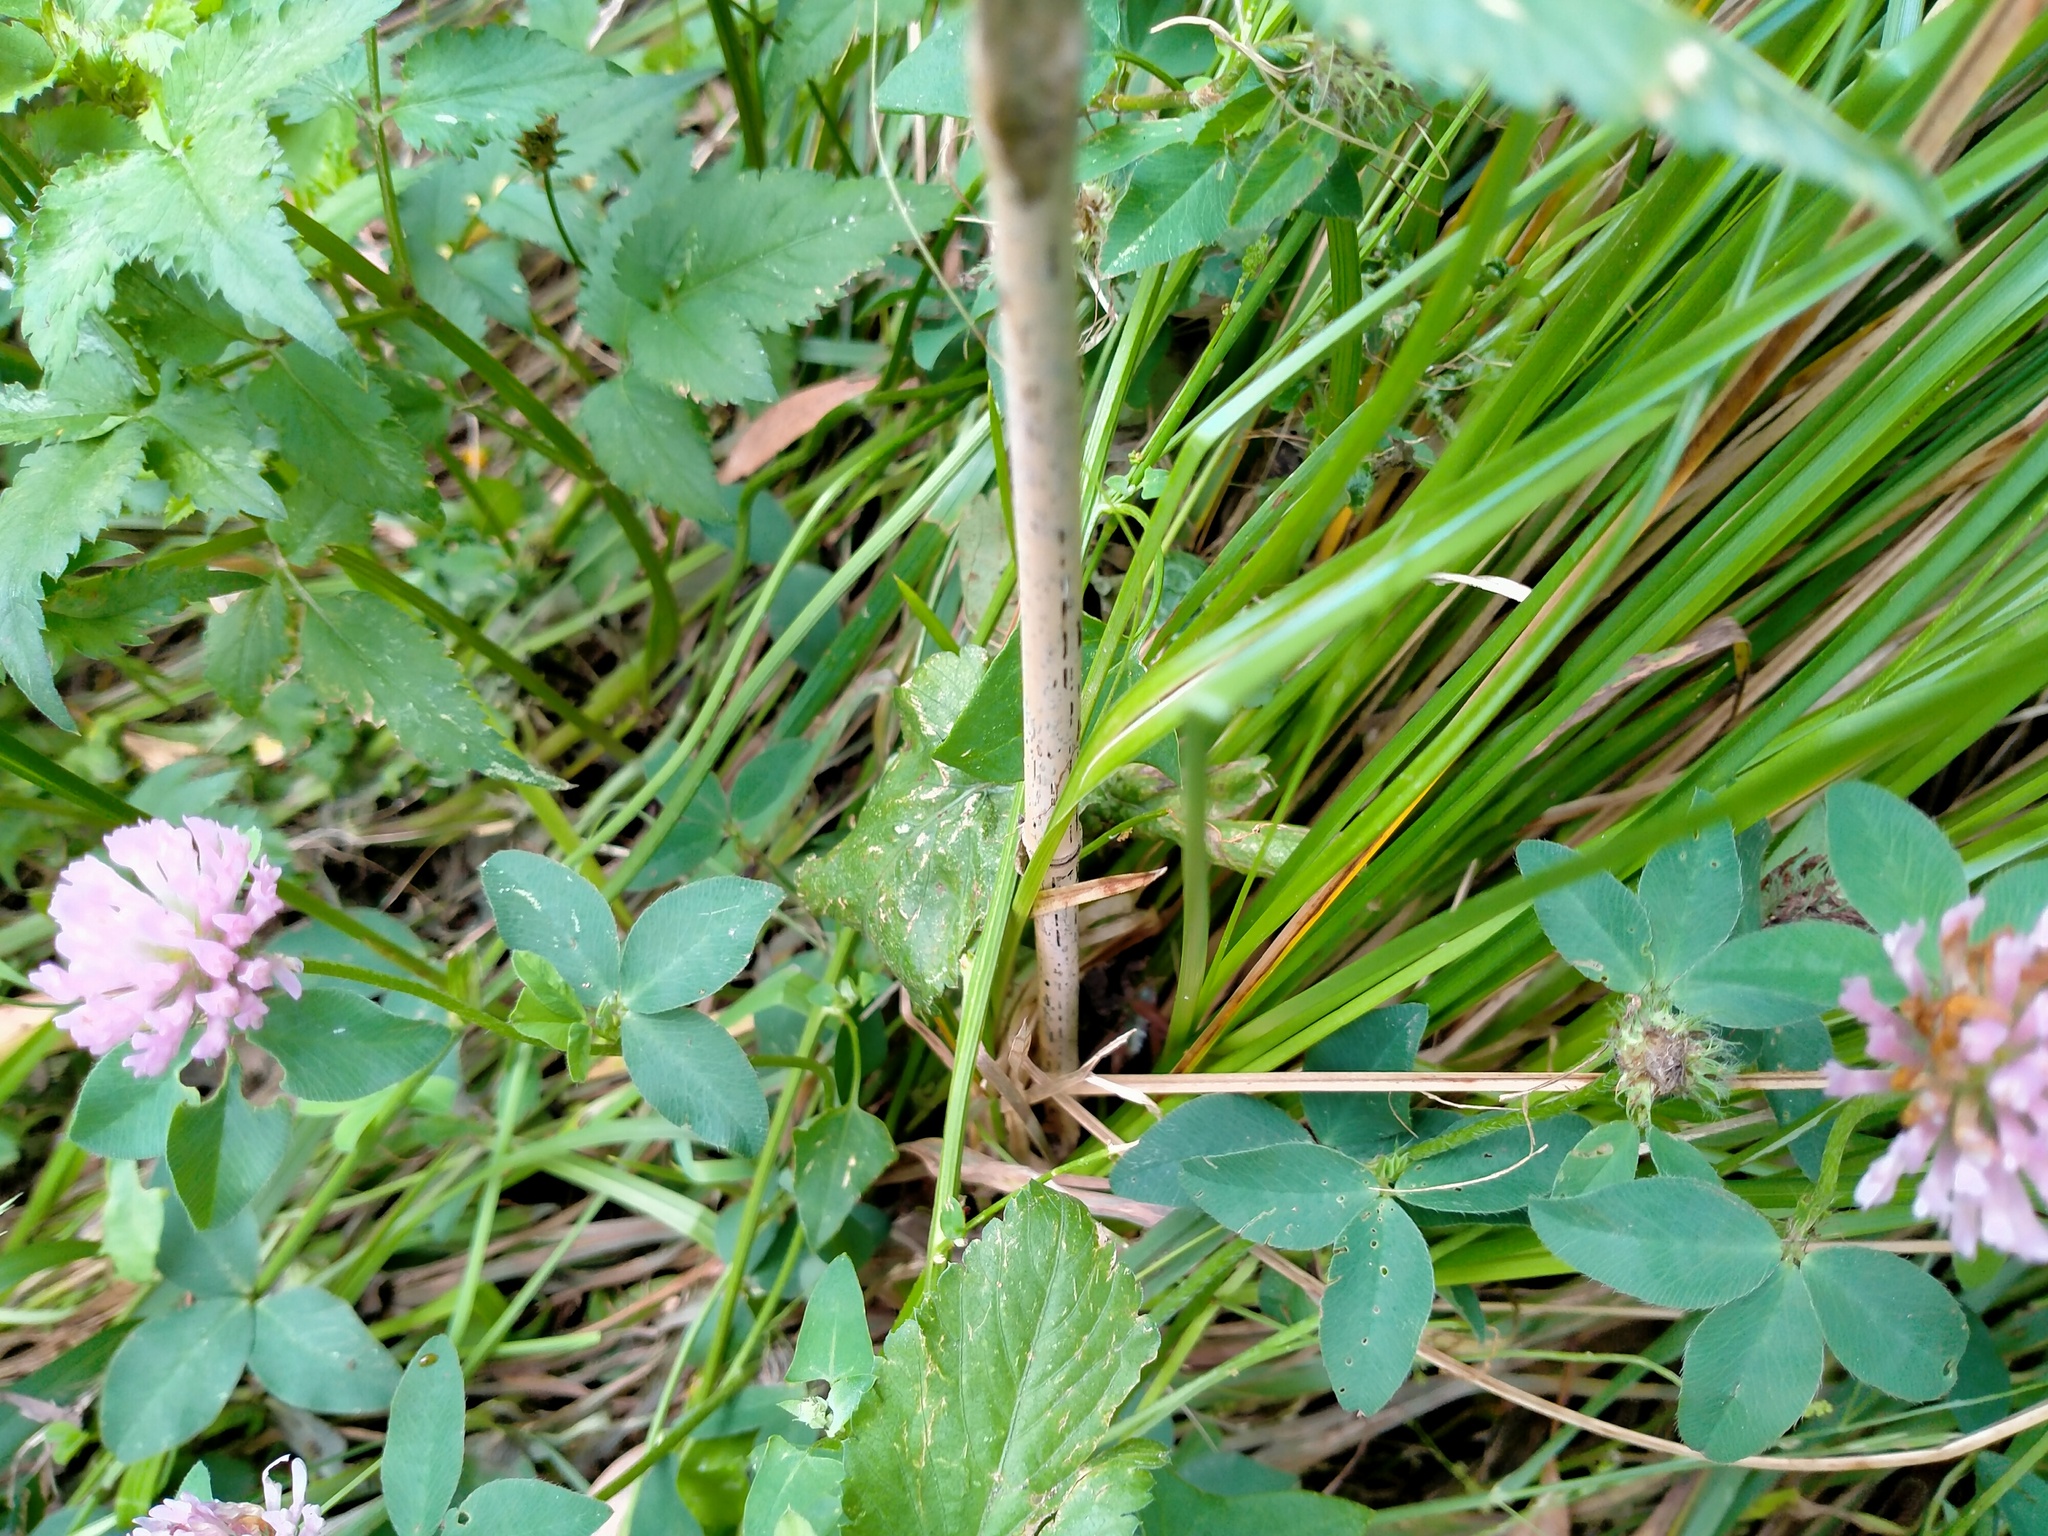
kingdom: Plantae
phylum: Tracheophyta
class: Magnoliopsida
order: Fabales
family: Fabaceae
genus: Trifolium
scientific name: Trifolium pratense
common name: Red clover
